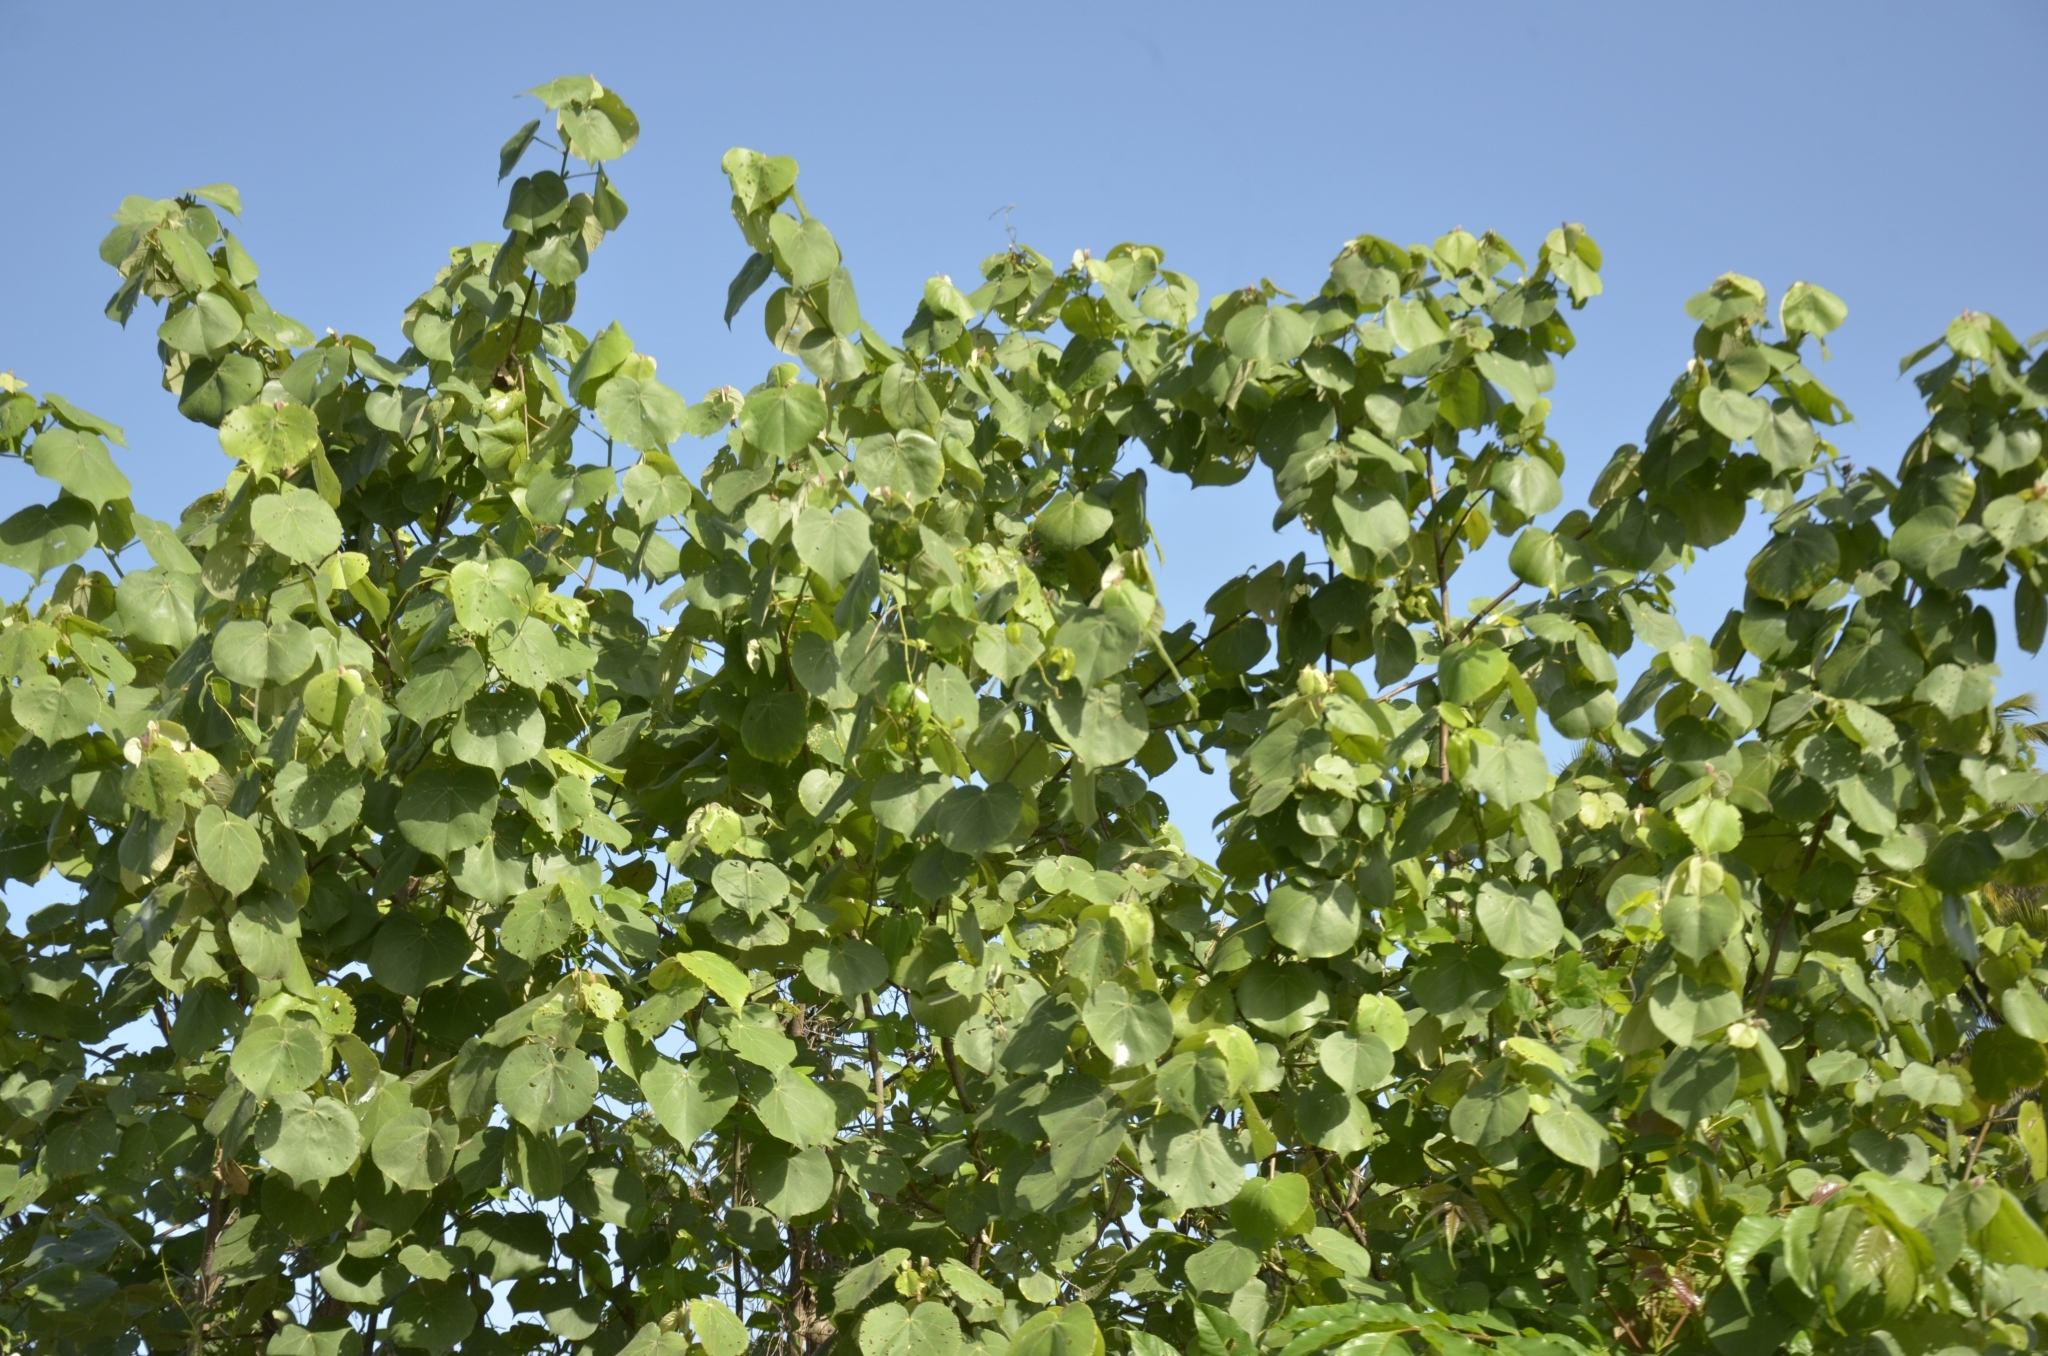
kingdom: Plantae
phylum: Tracheophyta
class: Magnoliopsida
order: Malvales
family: Malvaceae
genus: Talipariti
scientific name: Talipariti tiliaceum
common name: Sea hibiscus
